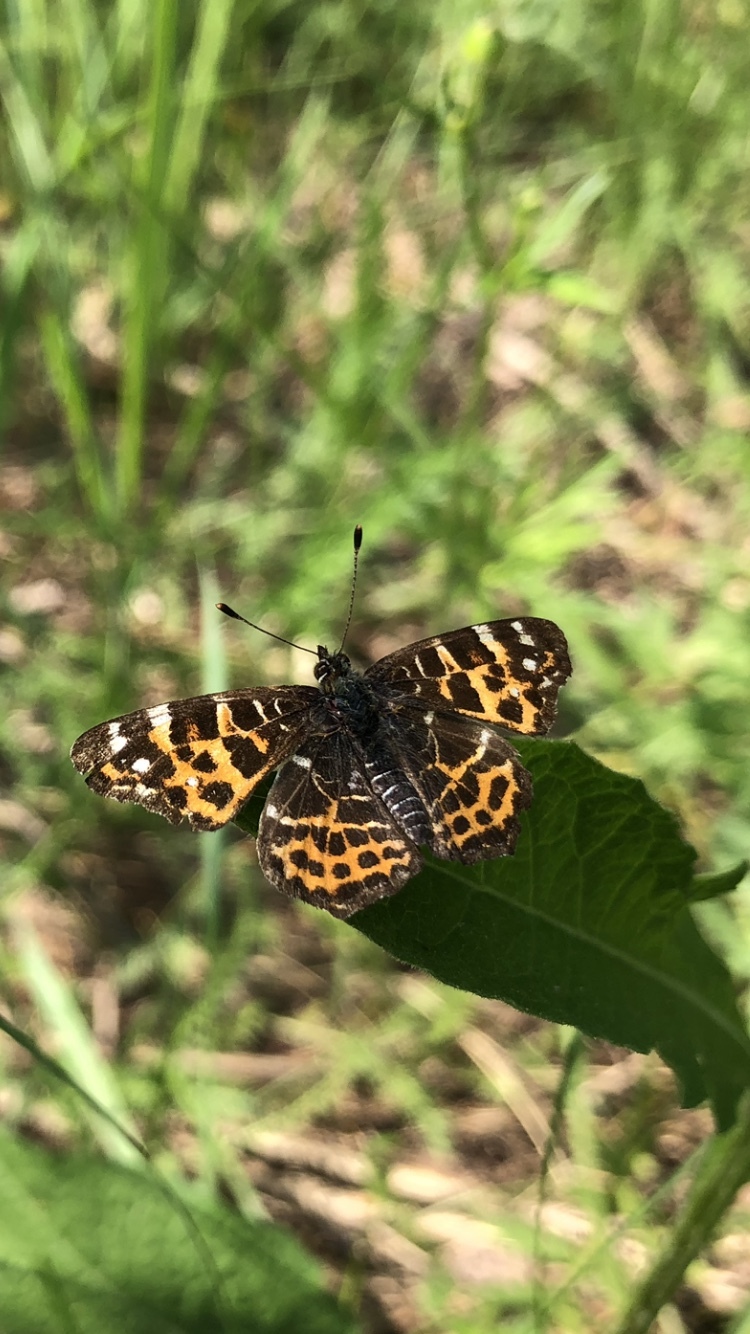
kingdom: Animalia
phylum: Arthropoda
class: Insecta
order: Lepidoptera
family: Nymphalidae
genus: Araschnia
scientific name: Araschnia levana
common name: Map butterfly
